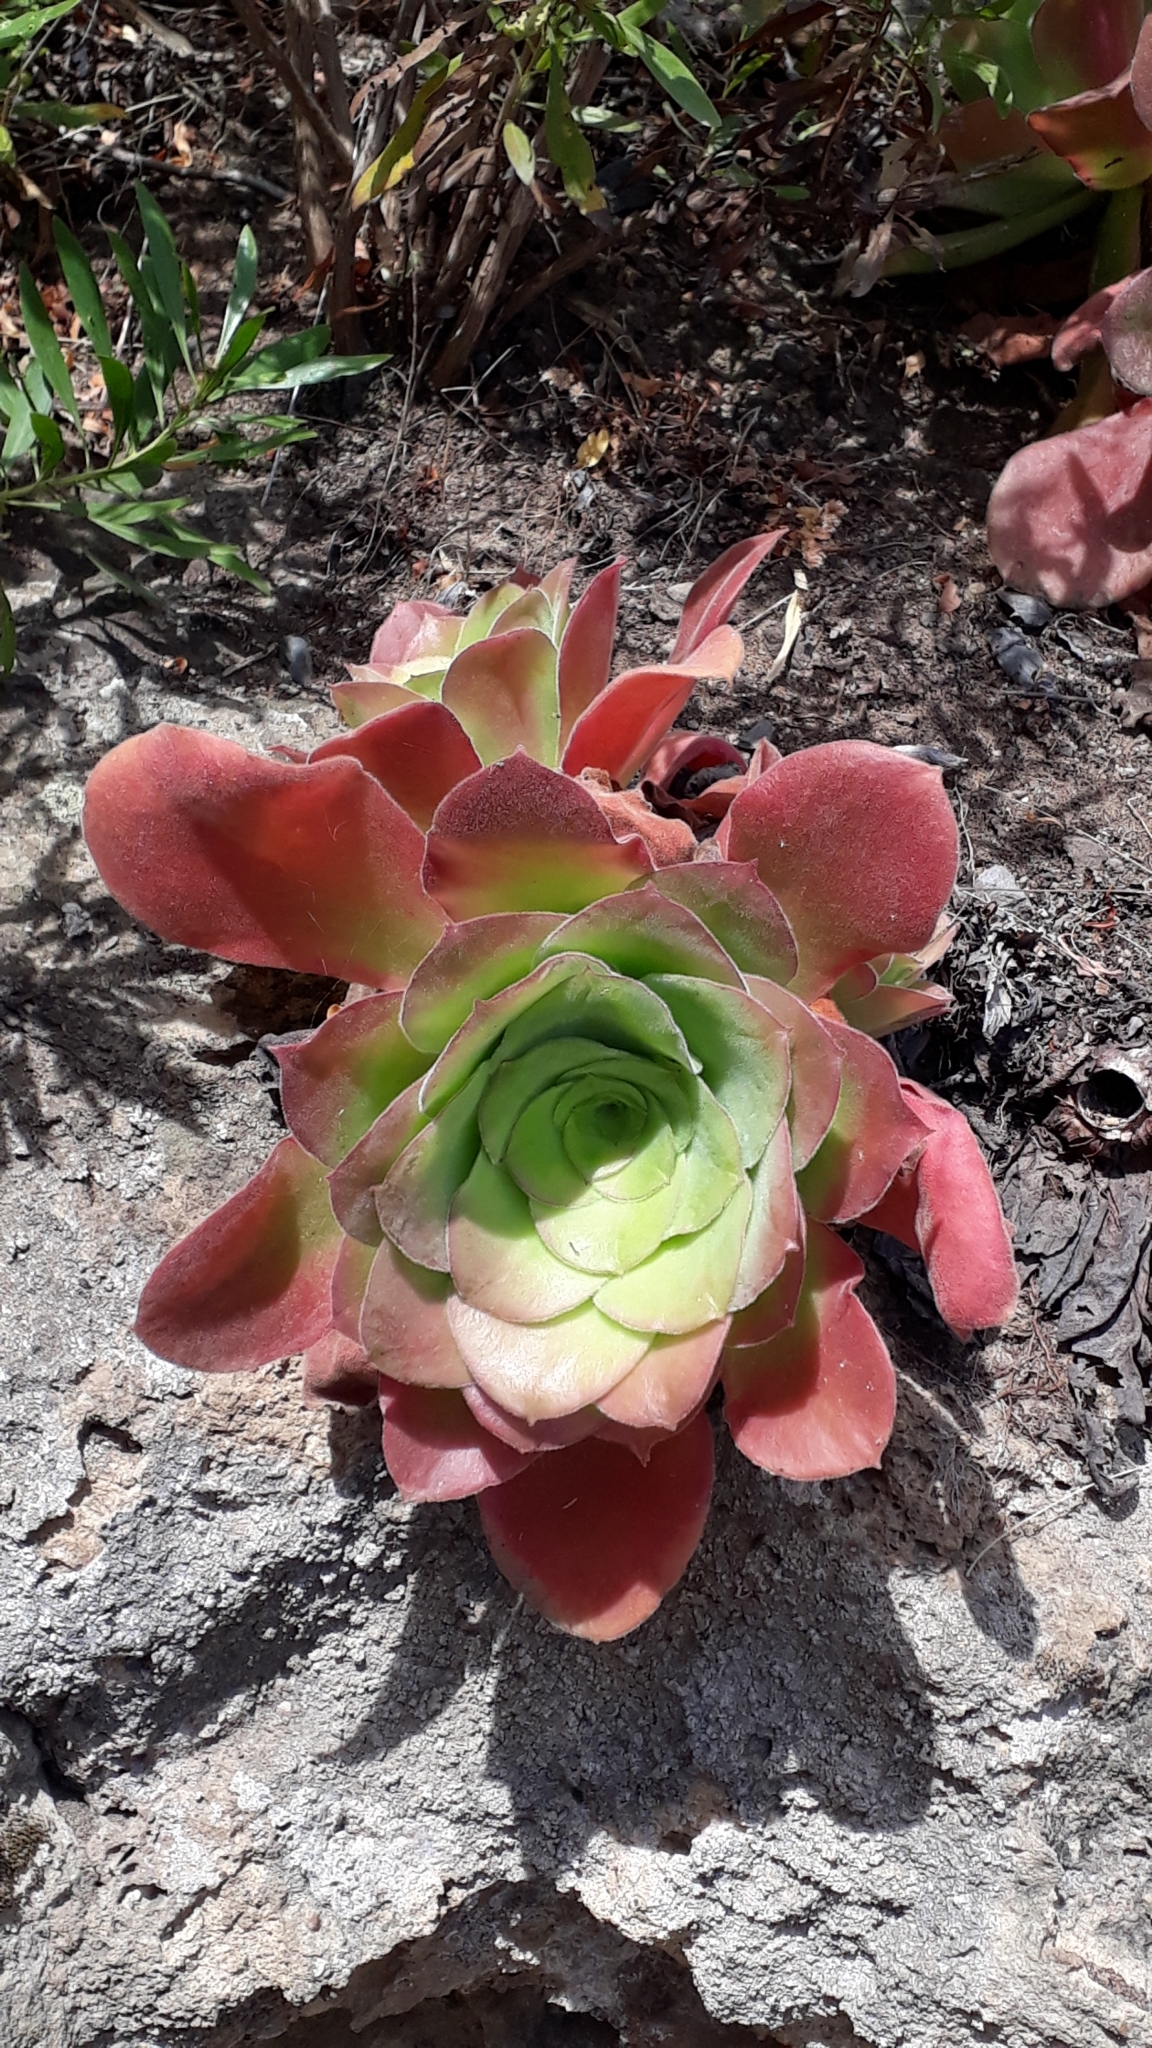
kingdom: Plantae
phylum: Tracheophyta
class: Magnoliopsida
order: Saxifragales
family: Crassulaceae
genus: Aeonium
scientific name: Aeonium canariense
